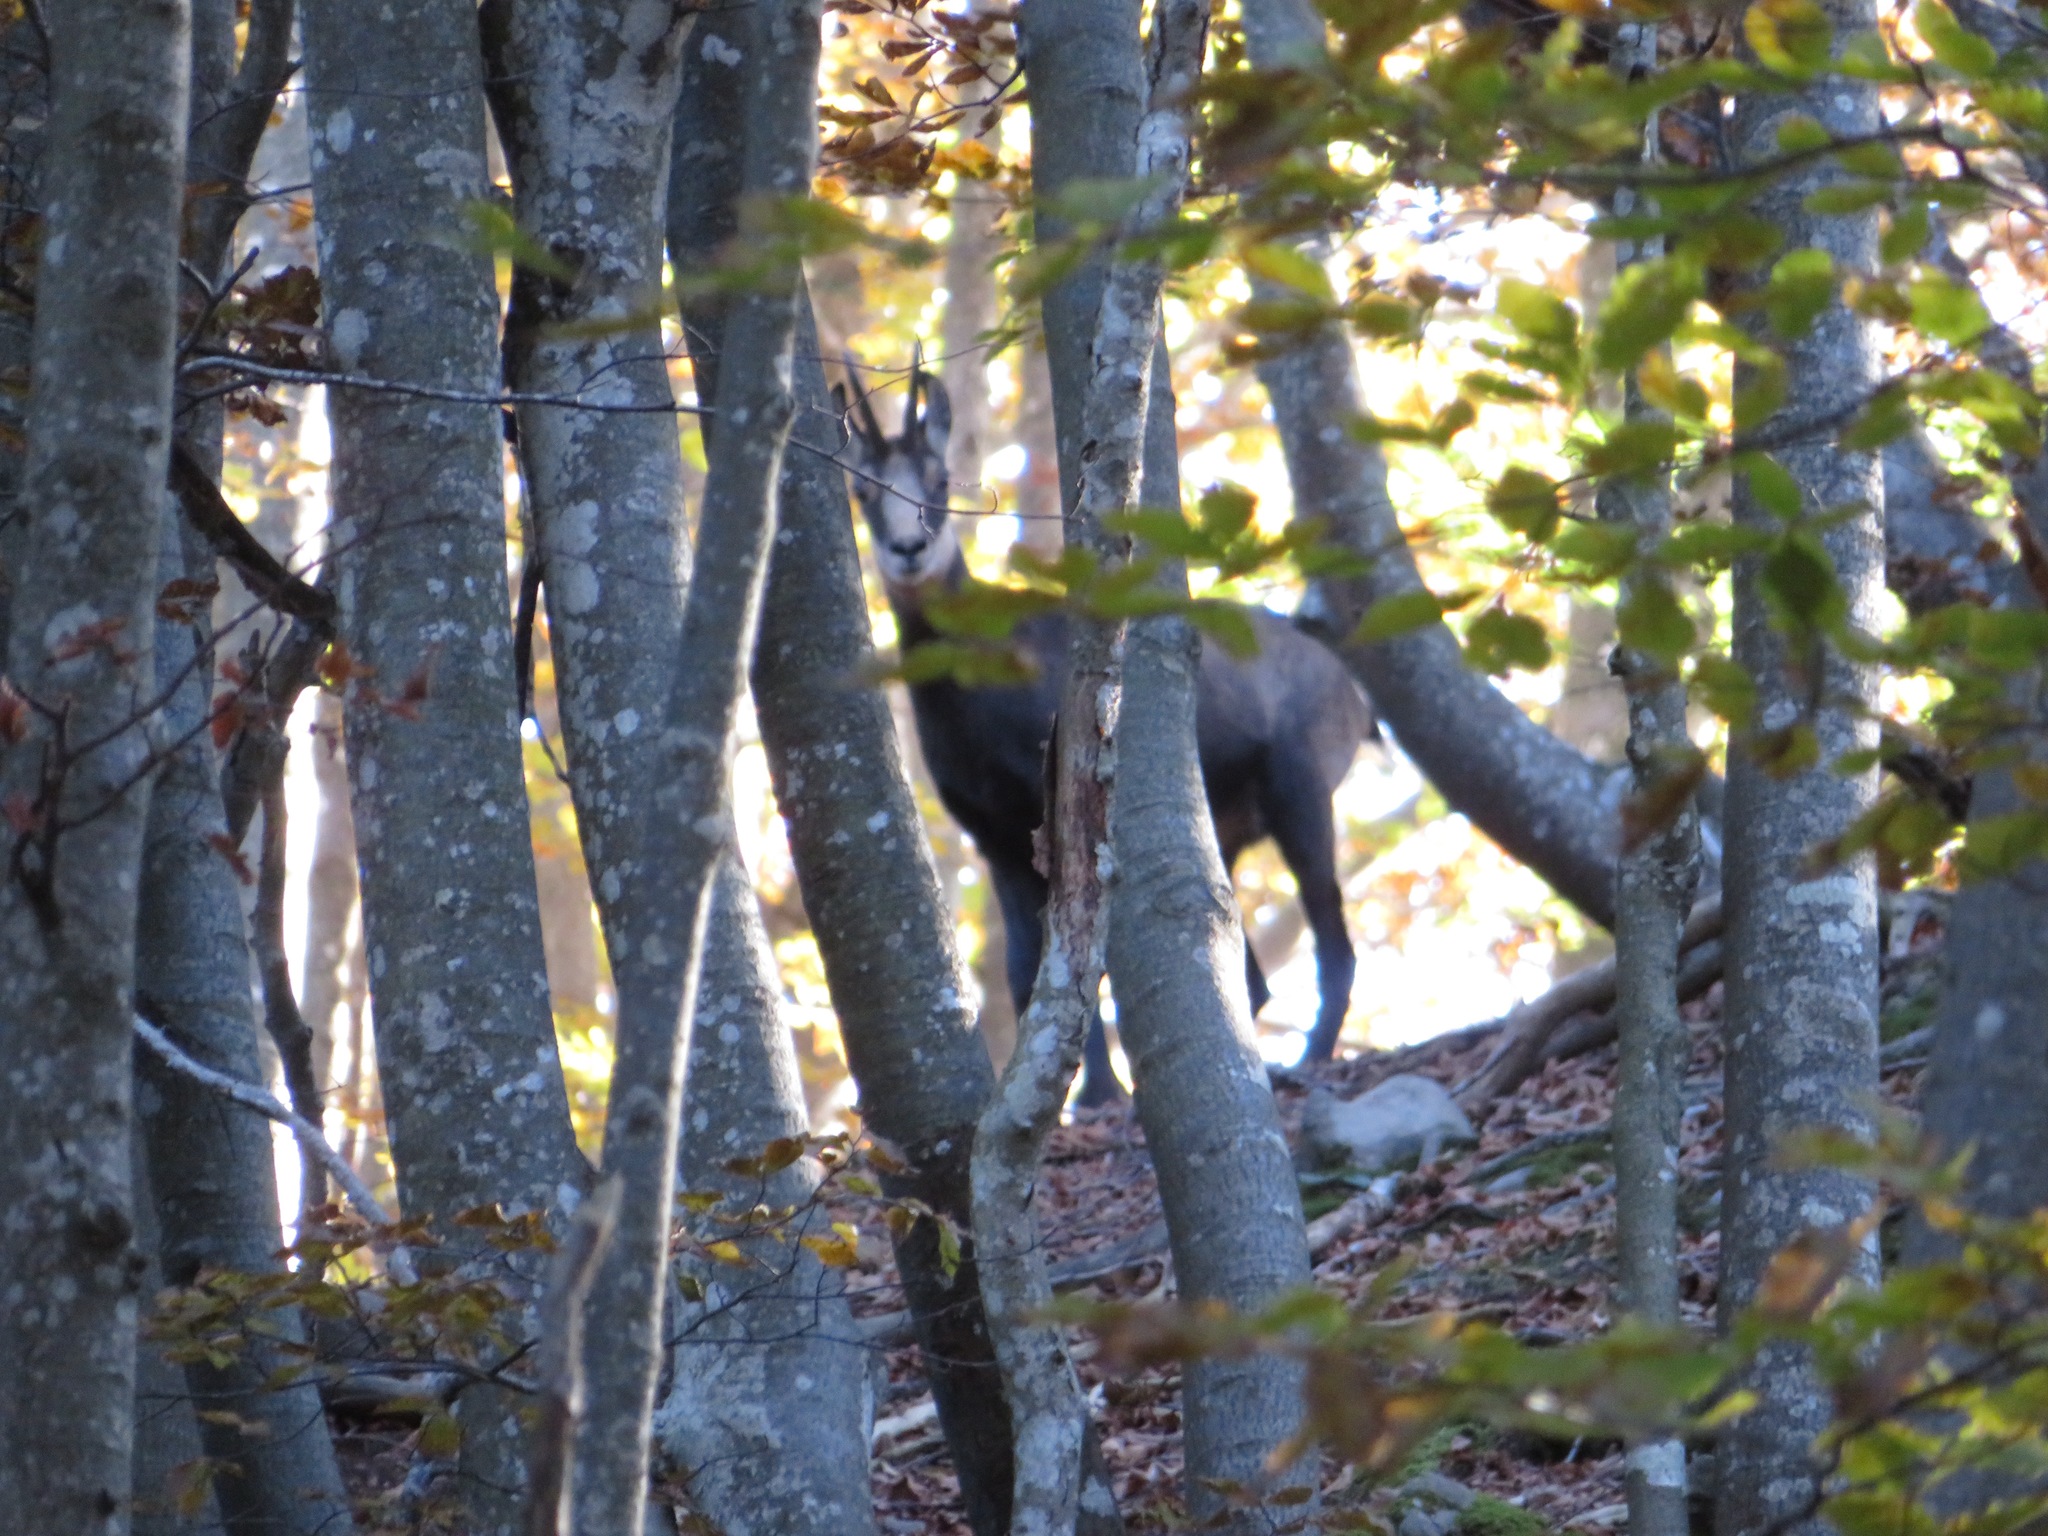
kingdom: Animalia
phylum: Chordata
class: Mammalia
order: Artiodactyla
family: Bovidae
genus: Rupicapra
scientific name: Rupicapra rupicapra
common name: Chamois
